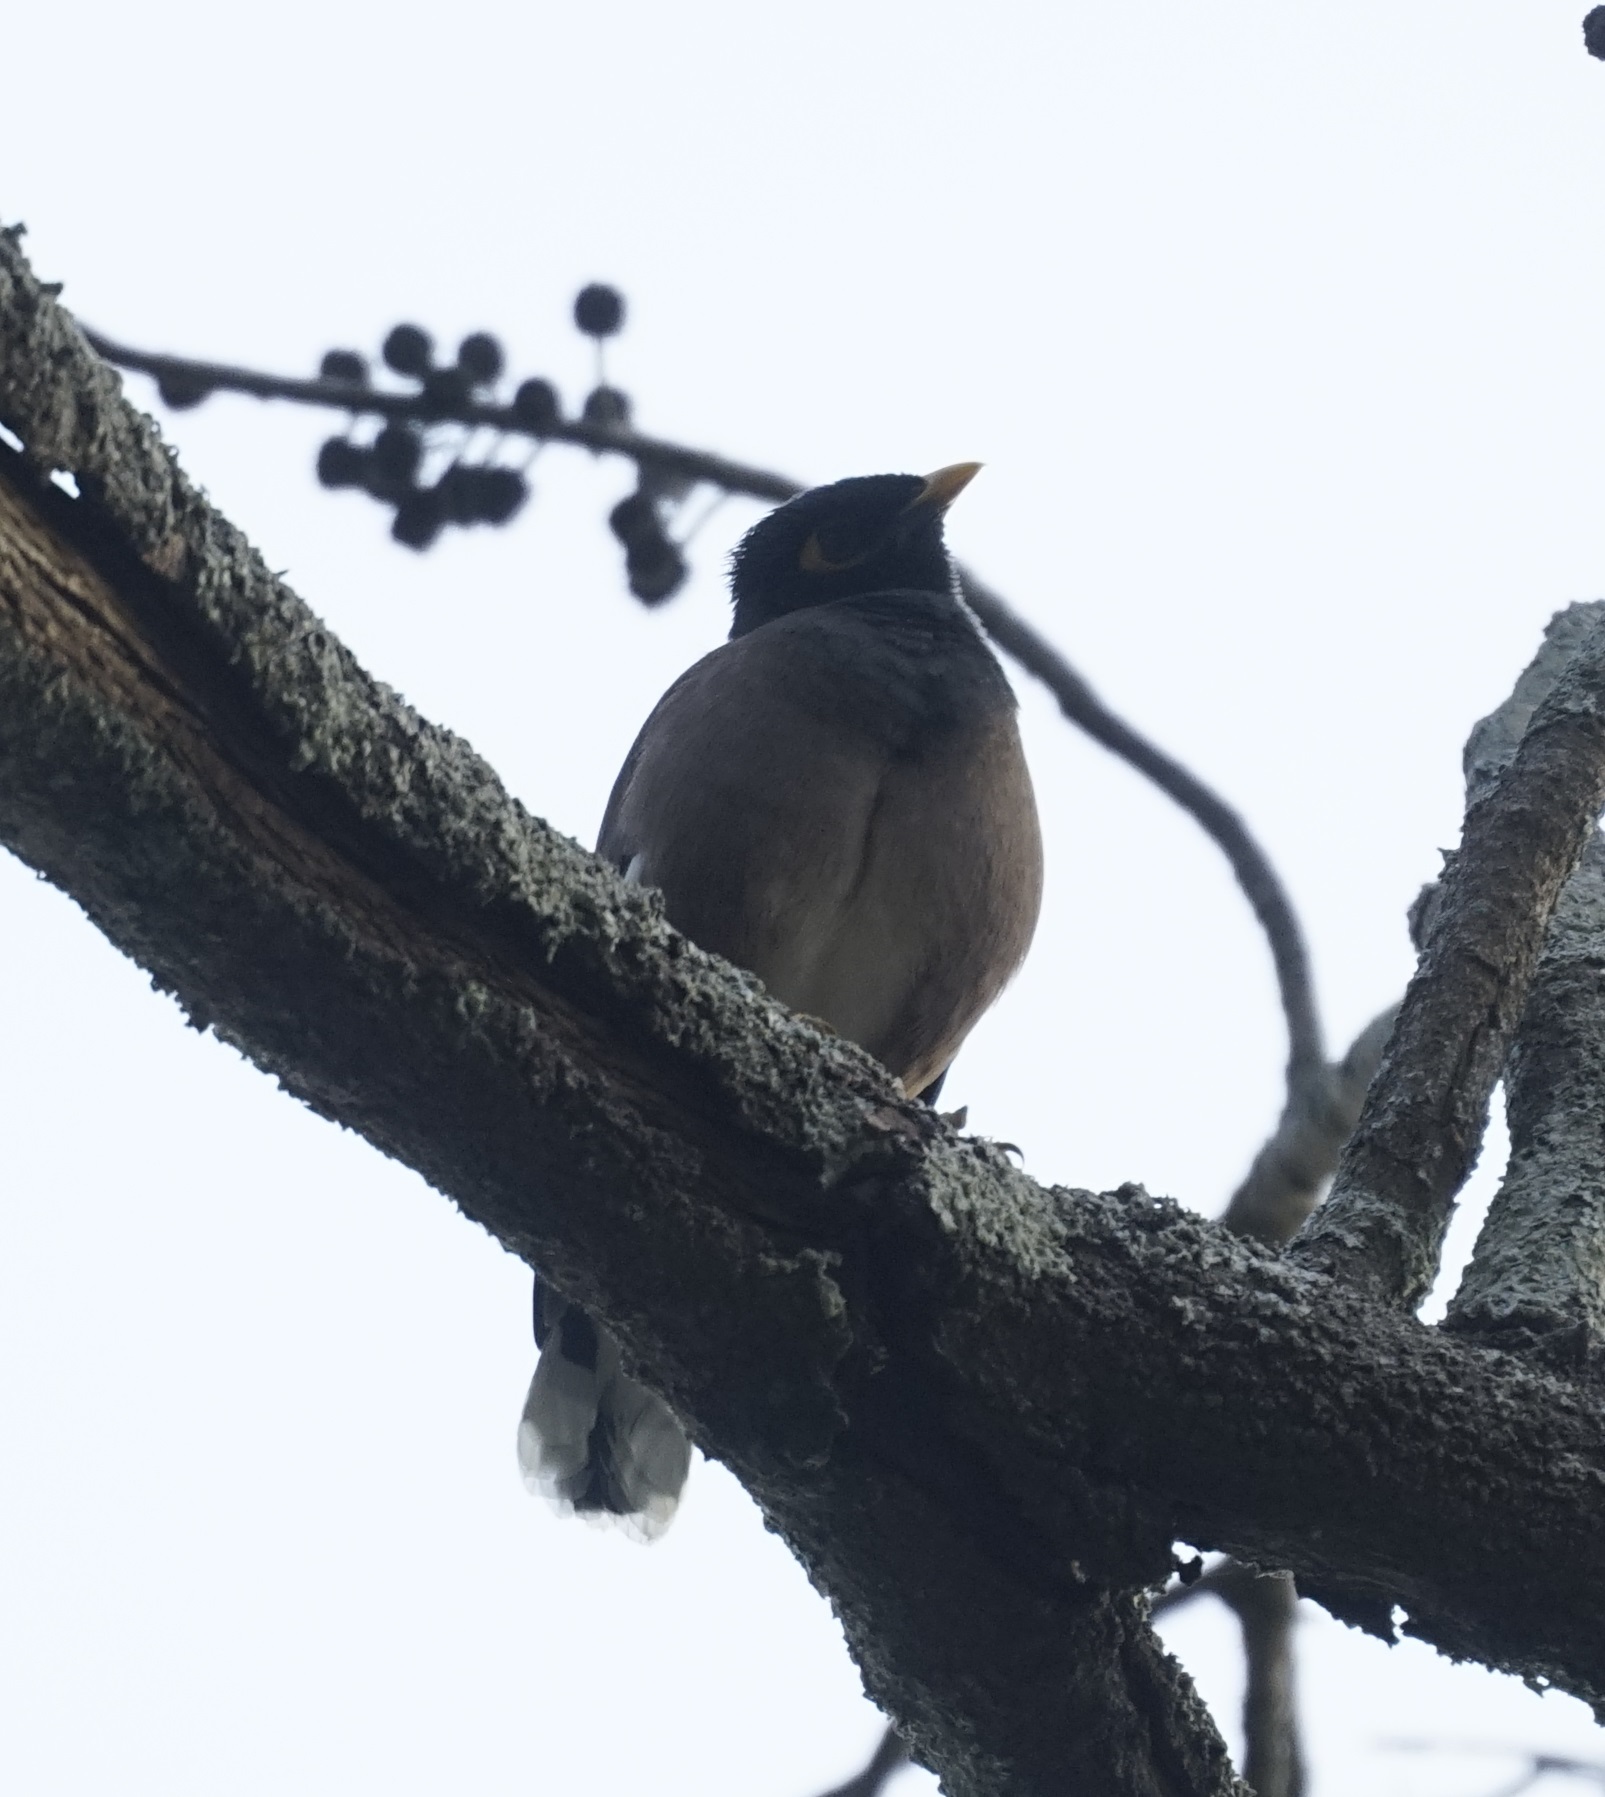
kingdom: Animalia
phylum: Chordata
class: Aves
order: Passeriformes
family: Sturnidae
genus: Acridotheres
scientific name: Acridotheres tristis
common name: Common myna
